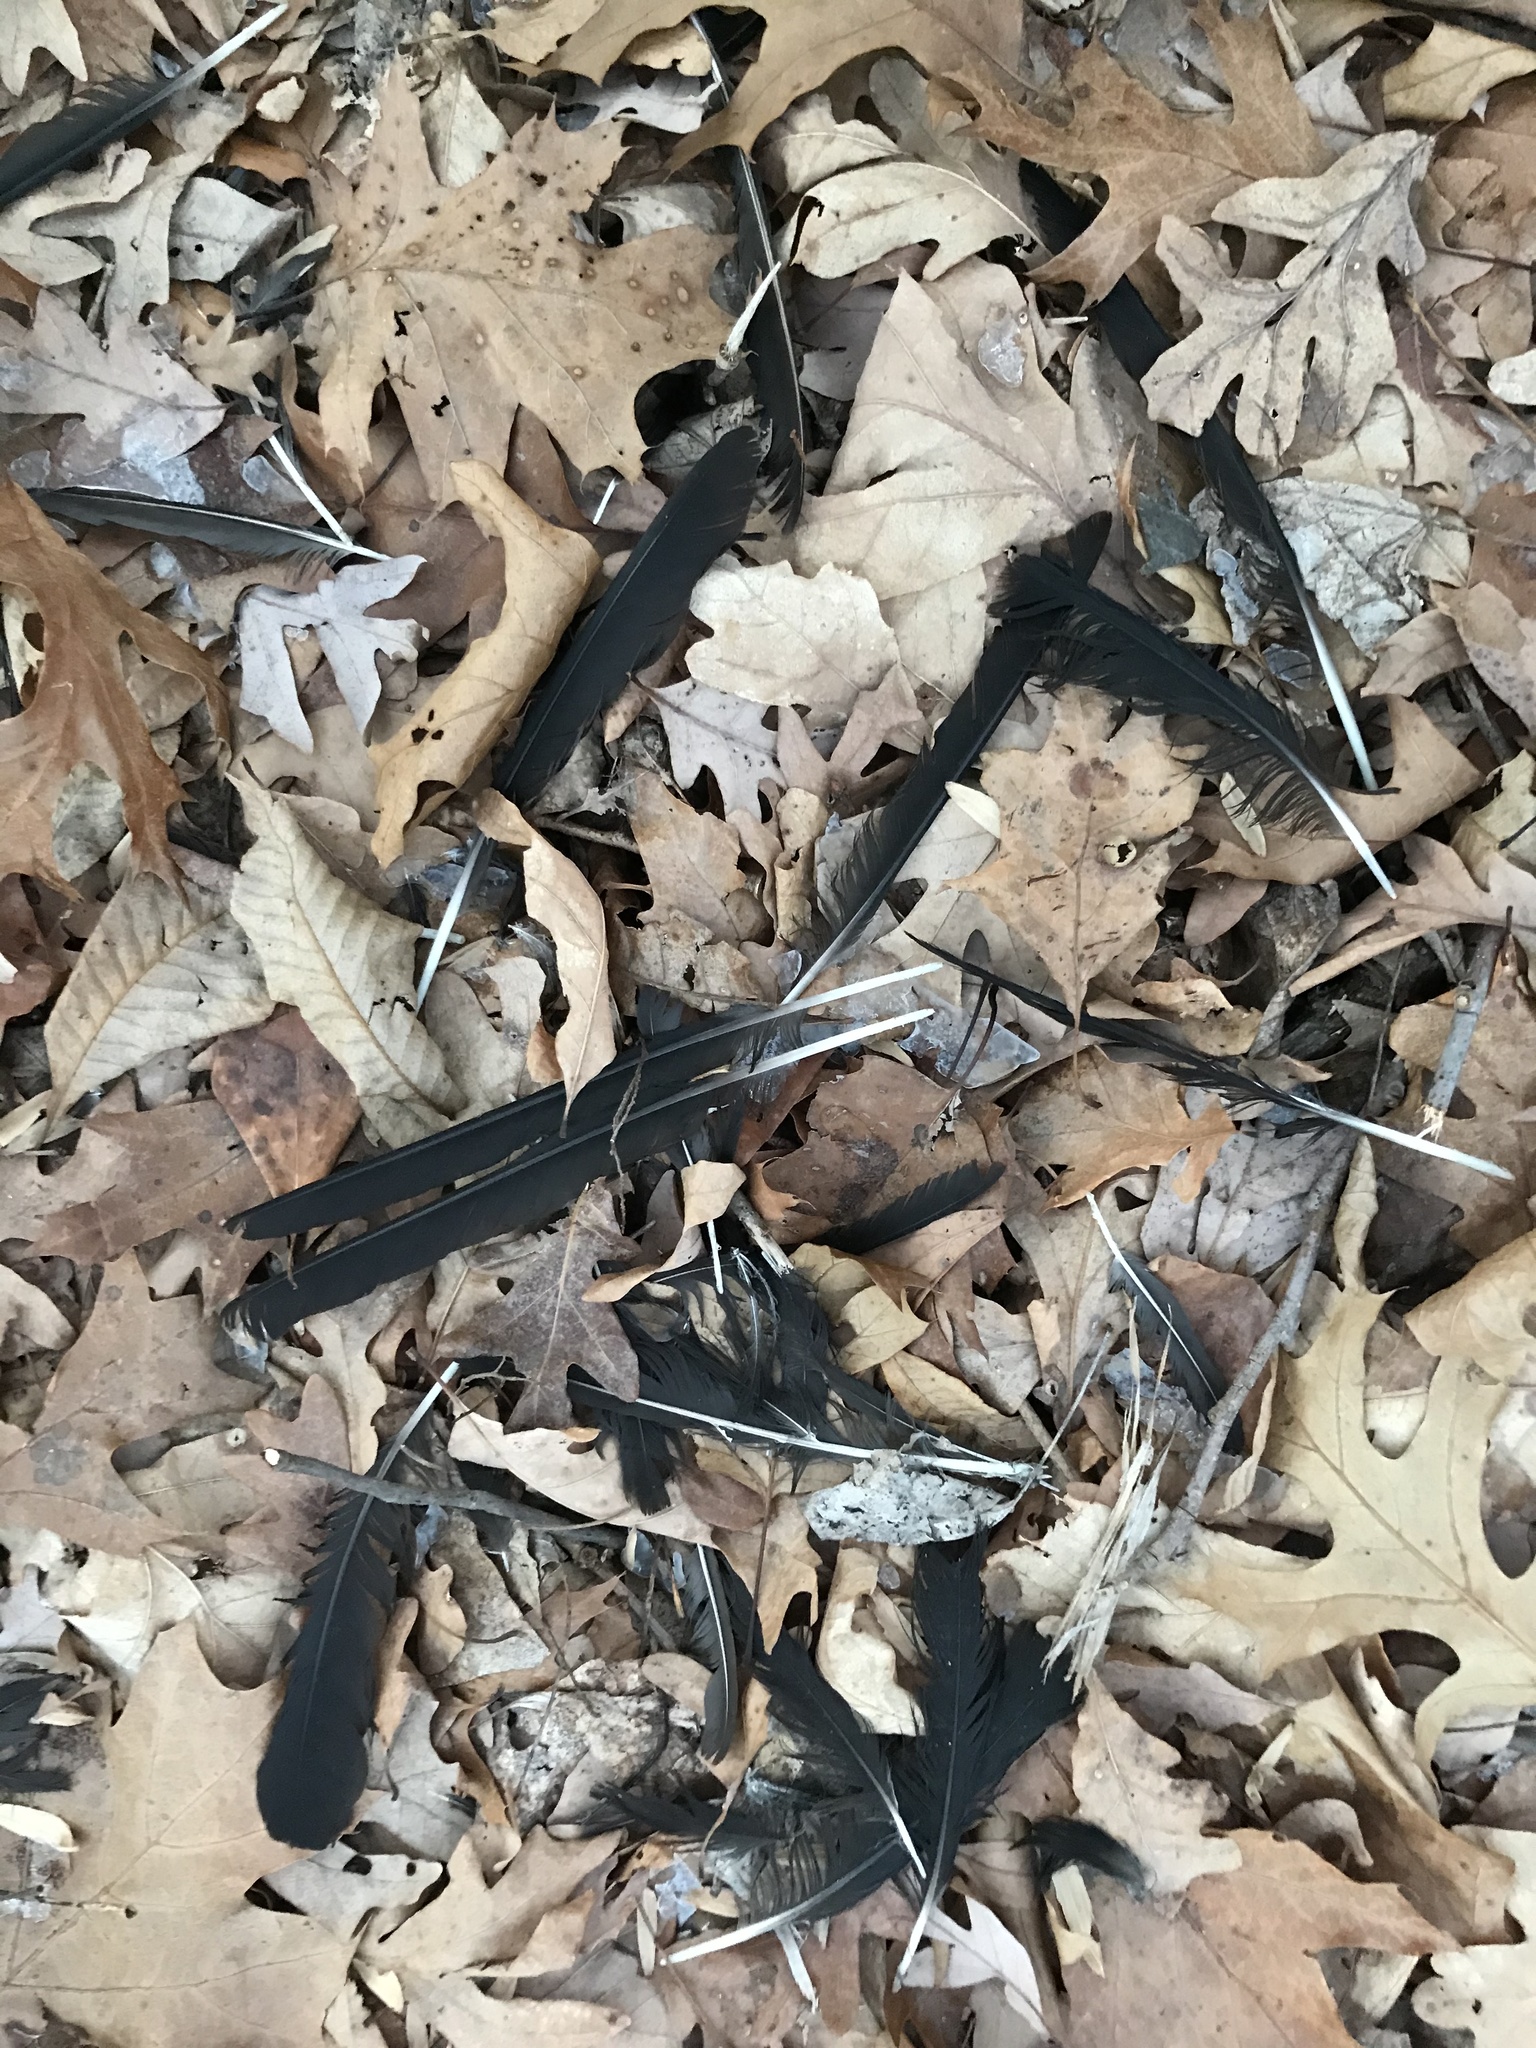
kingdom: Animalia
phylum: Chordata
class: Aves
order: Passeriformes
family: Corvidae
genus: Corvus
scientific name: Corvus brachyrhynchos
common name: American crow
